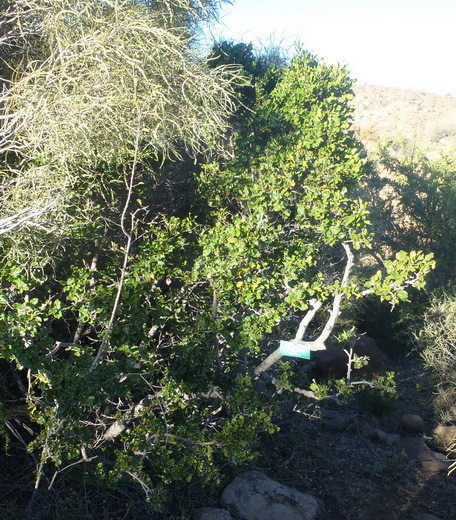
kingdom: Plantae
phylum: Tracheophyta
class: Magnoliopsida
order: Ericales
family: Ebenaceae
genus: Diospyros
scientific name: Diospyros whyteana
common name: Bladder-nut
